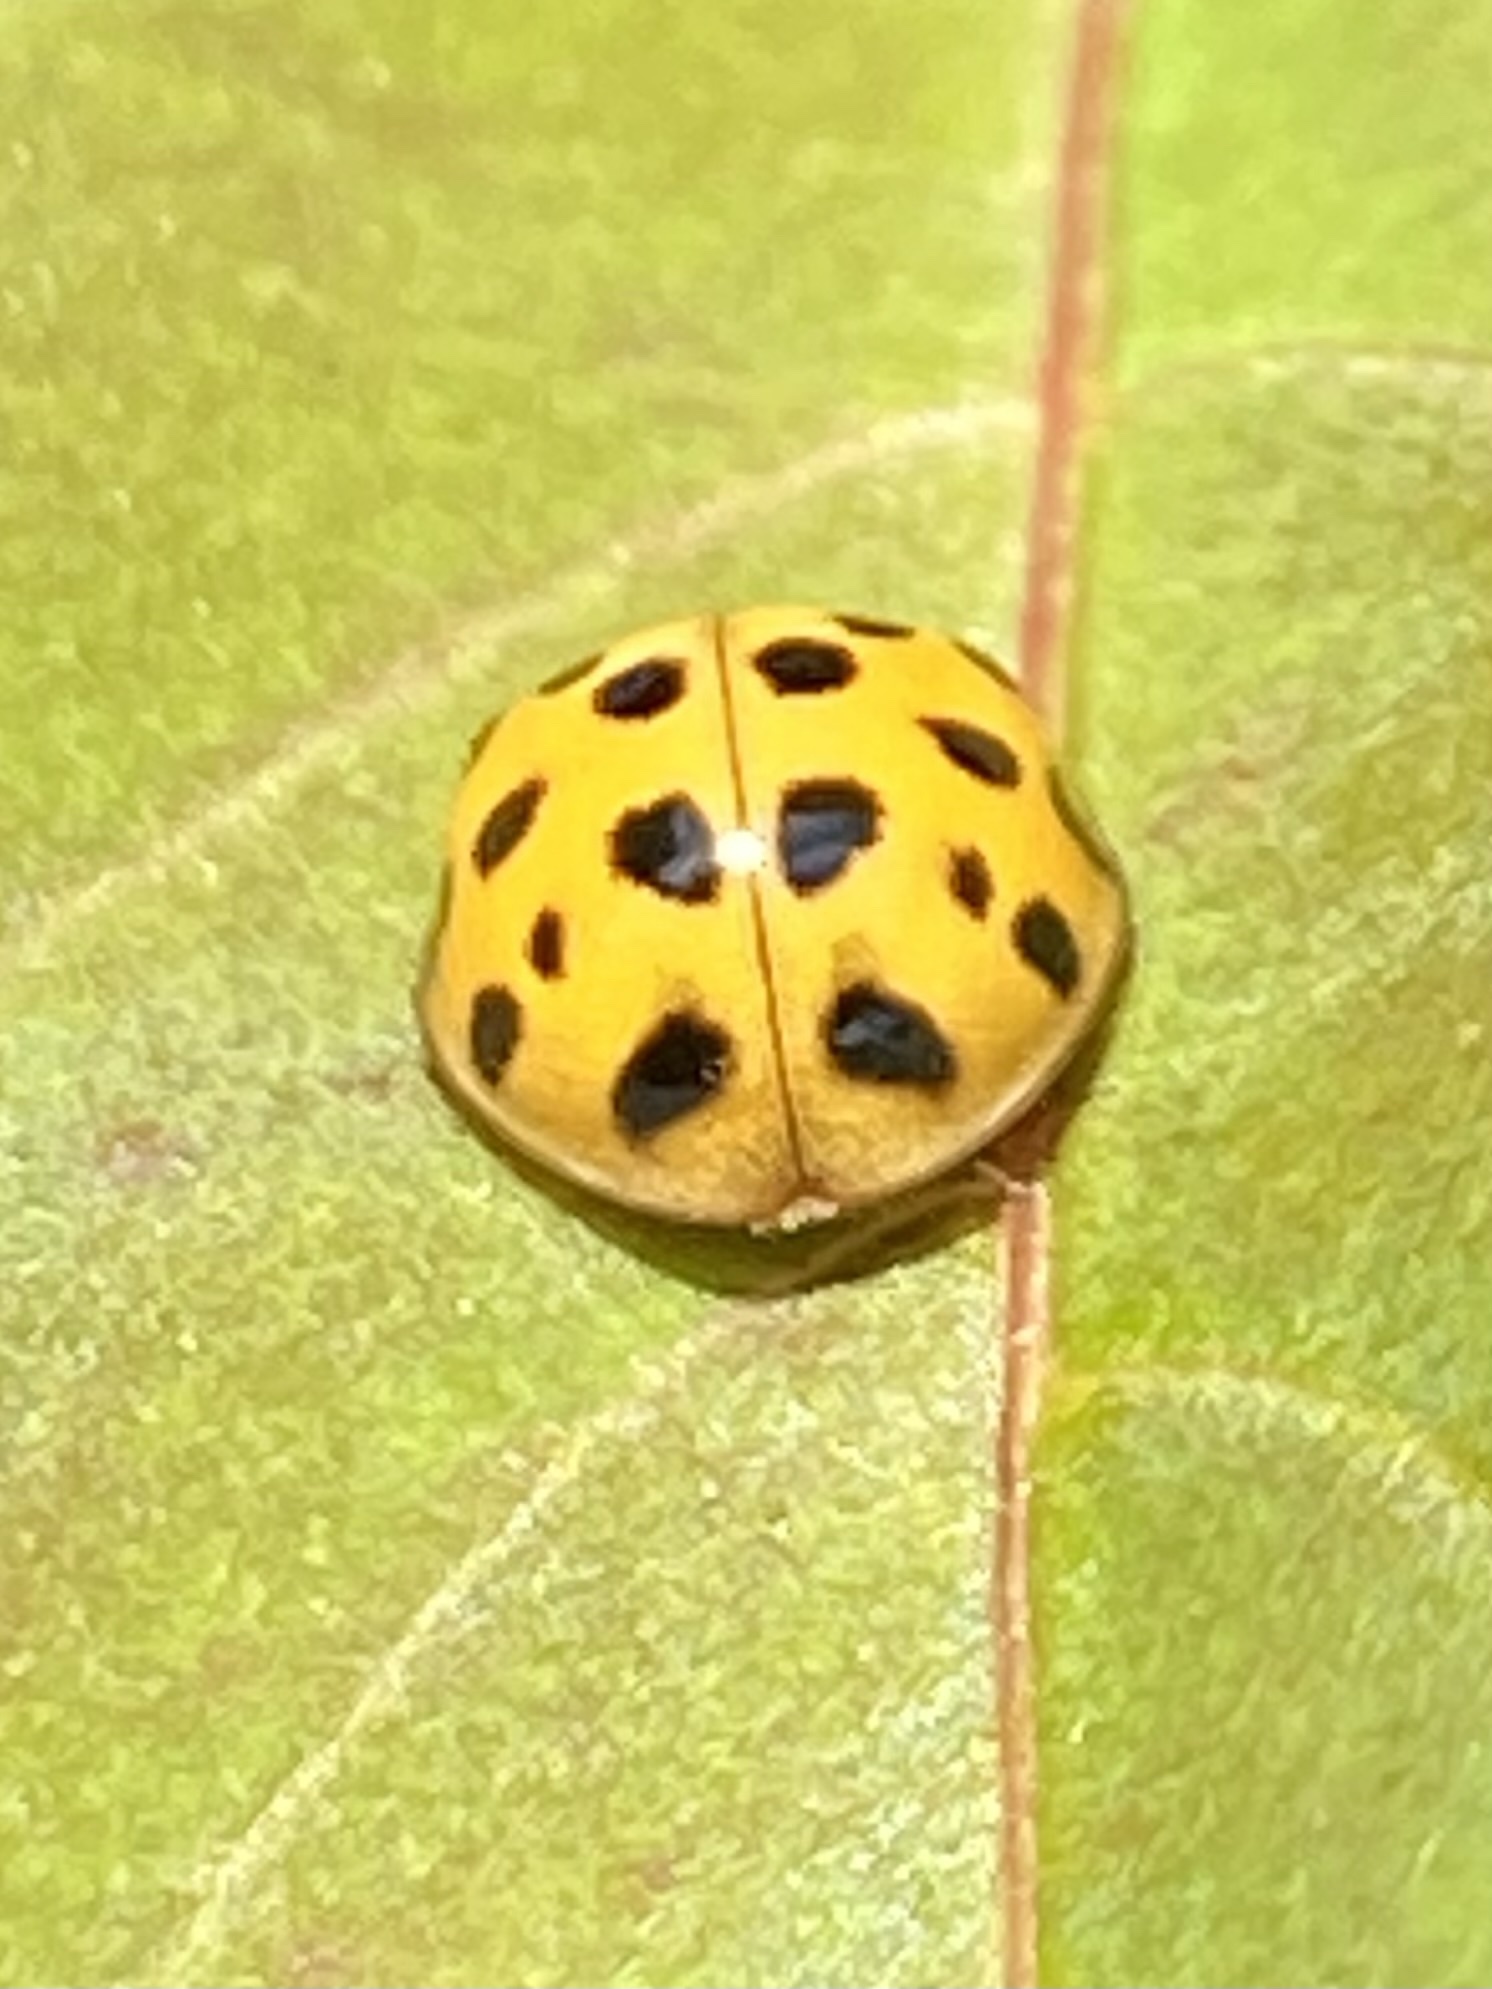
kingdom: Animalia
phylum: Arthropoda
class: Insecta
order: Coleoptera
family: Coccinellidae
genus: Harmonia
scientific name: Harmonia axyridis
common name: Harlequin ladybird
